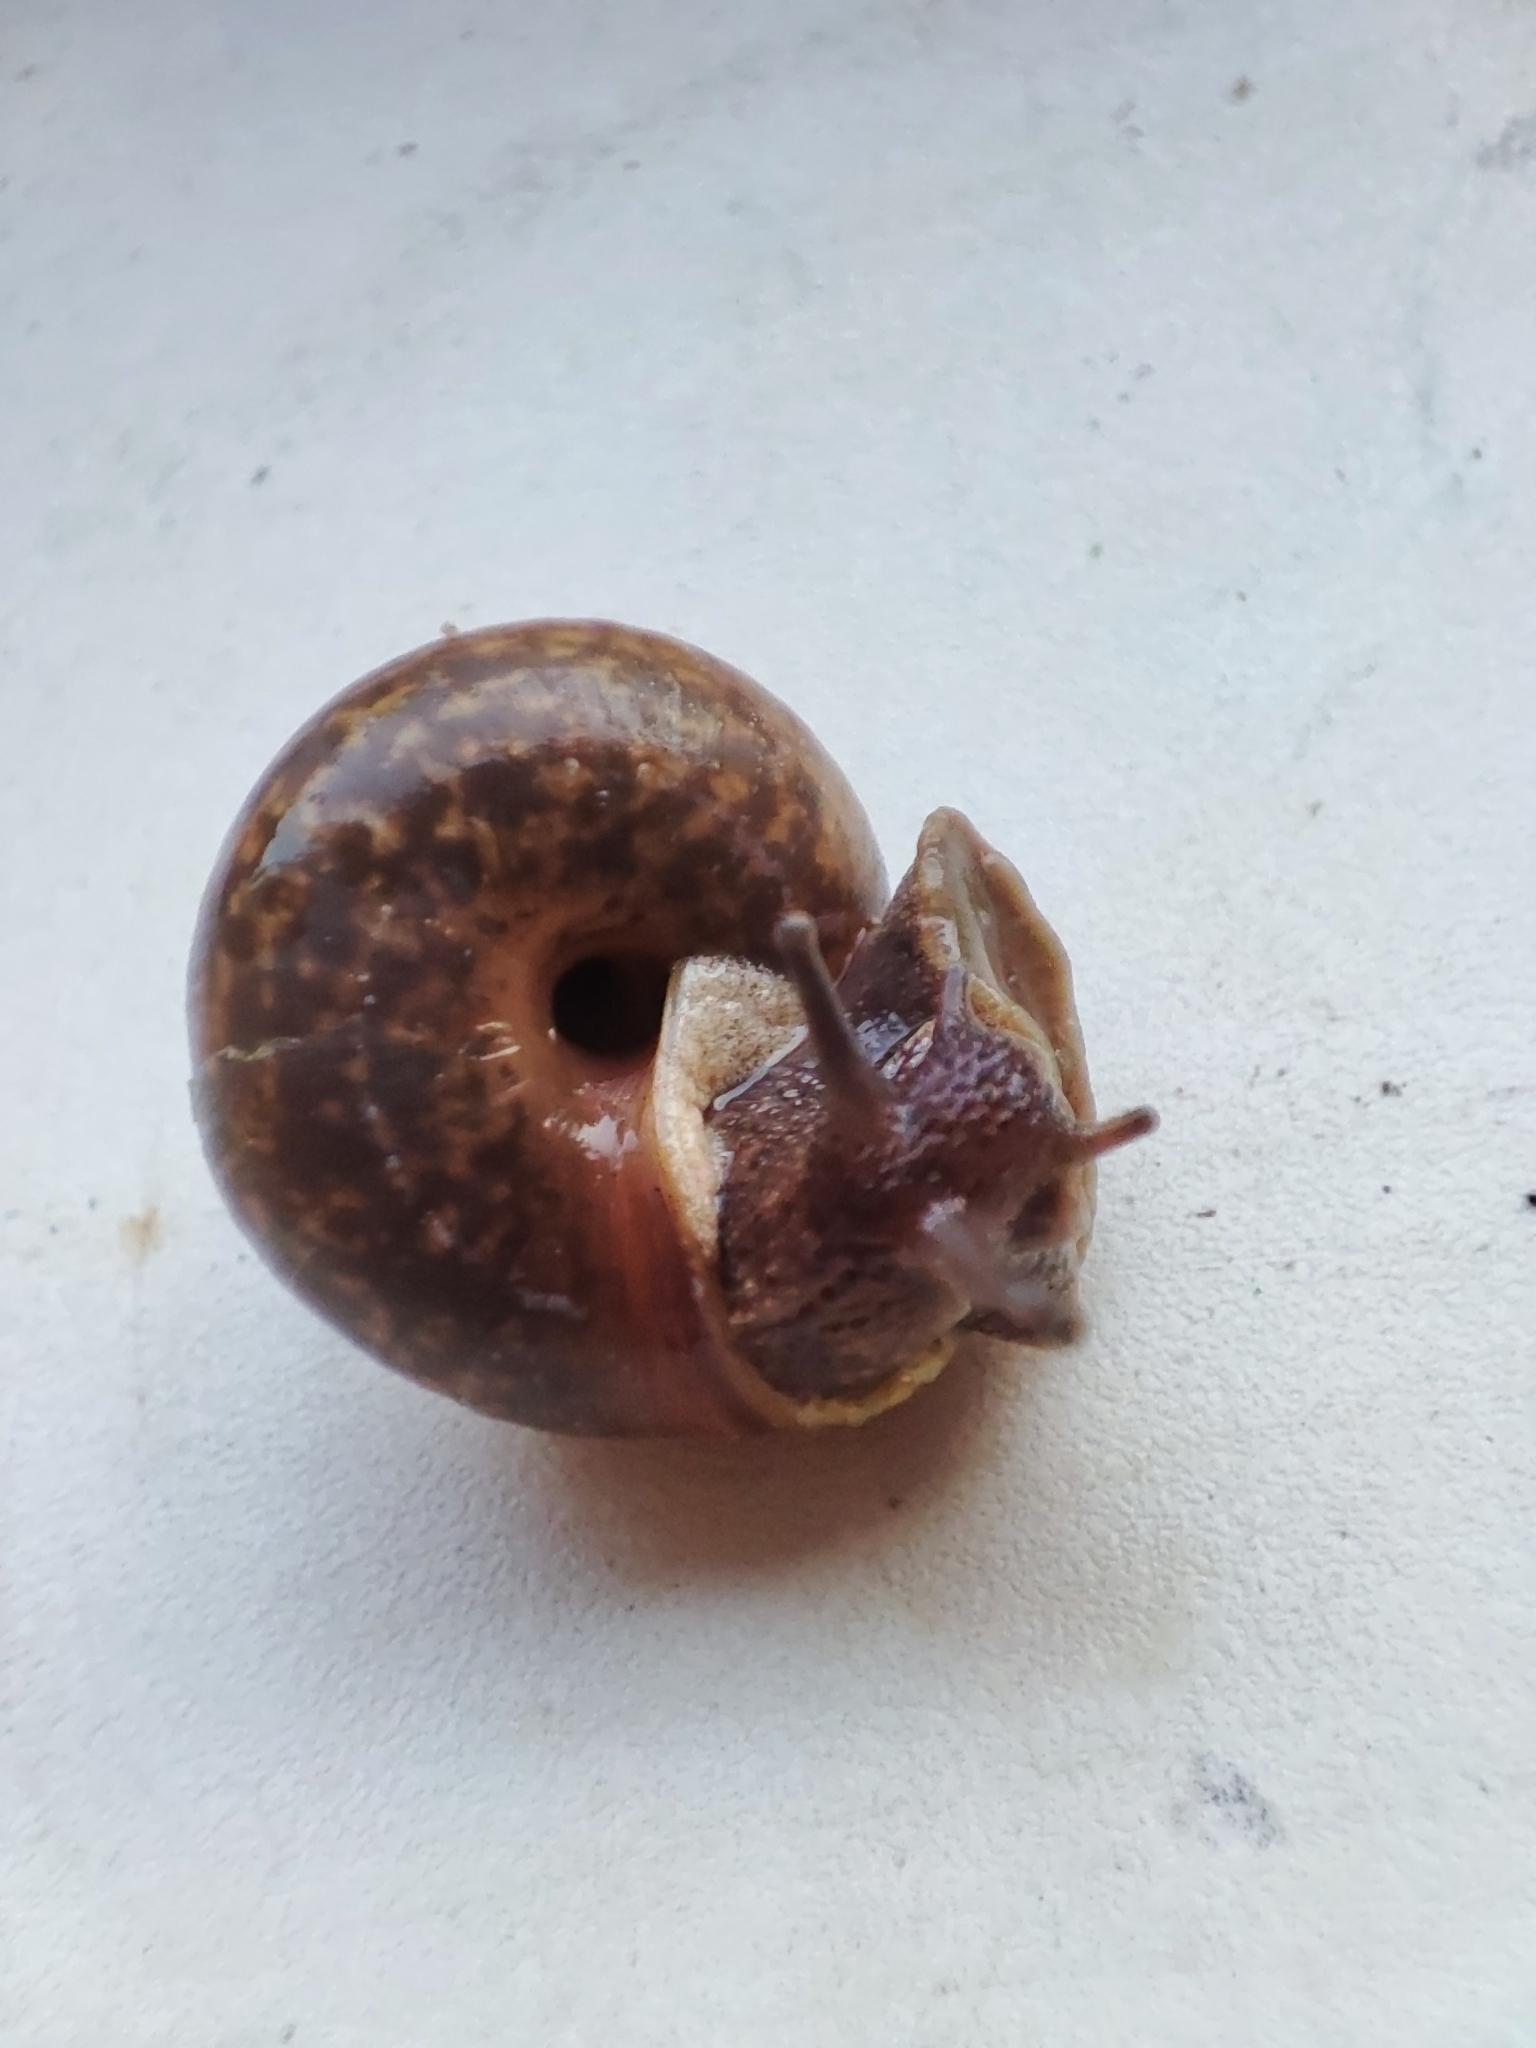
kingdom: Animalia
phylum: Mollusca
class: Gastropoda
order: Stylommatophora
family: Camaenidae
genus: Fruticicola
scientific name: Fruticicola fruticum
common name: Bush snail
